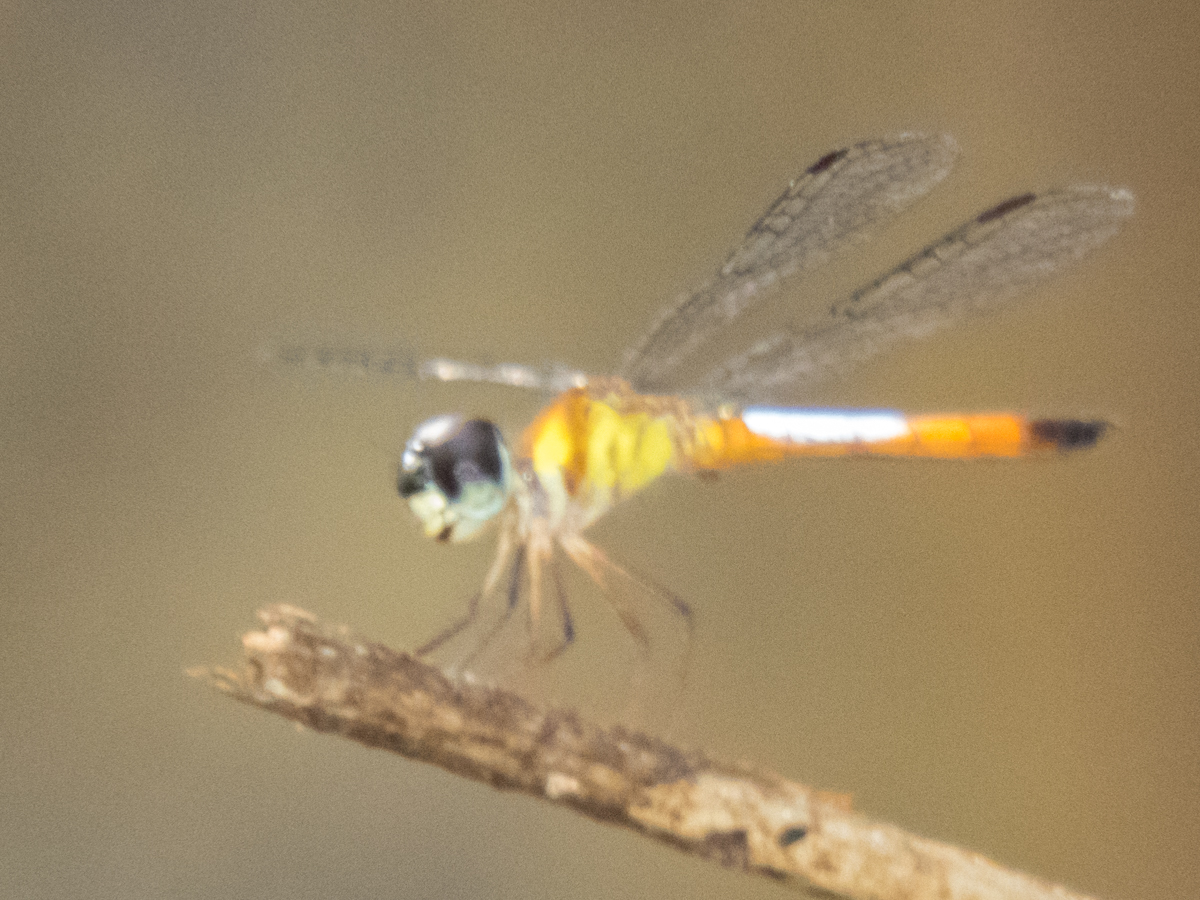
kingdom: Animalia
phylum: Arthropoda
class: Insecta
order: Odonata
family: Libellulidae
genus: Brachygonia
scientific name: Brachygonia oculata
